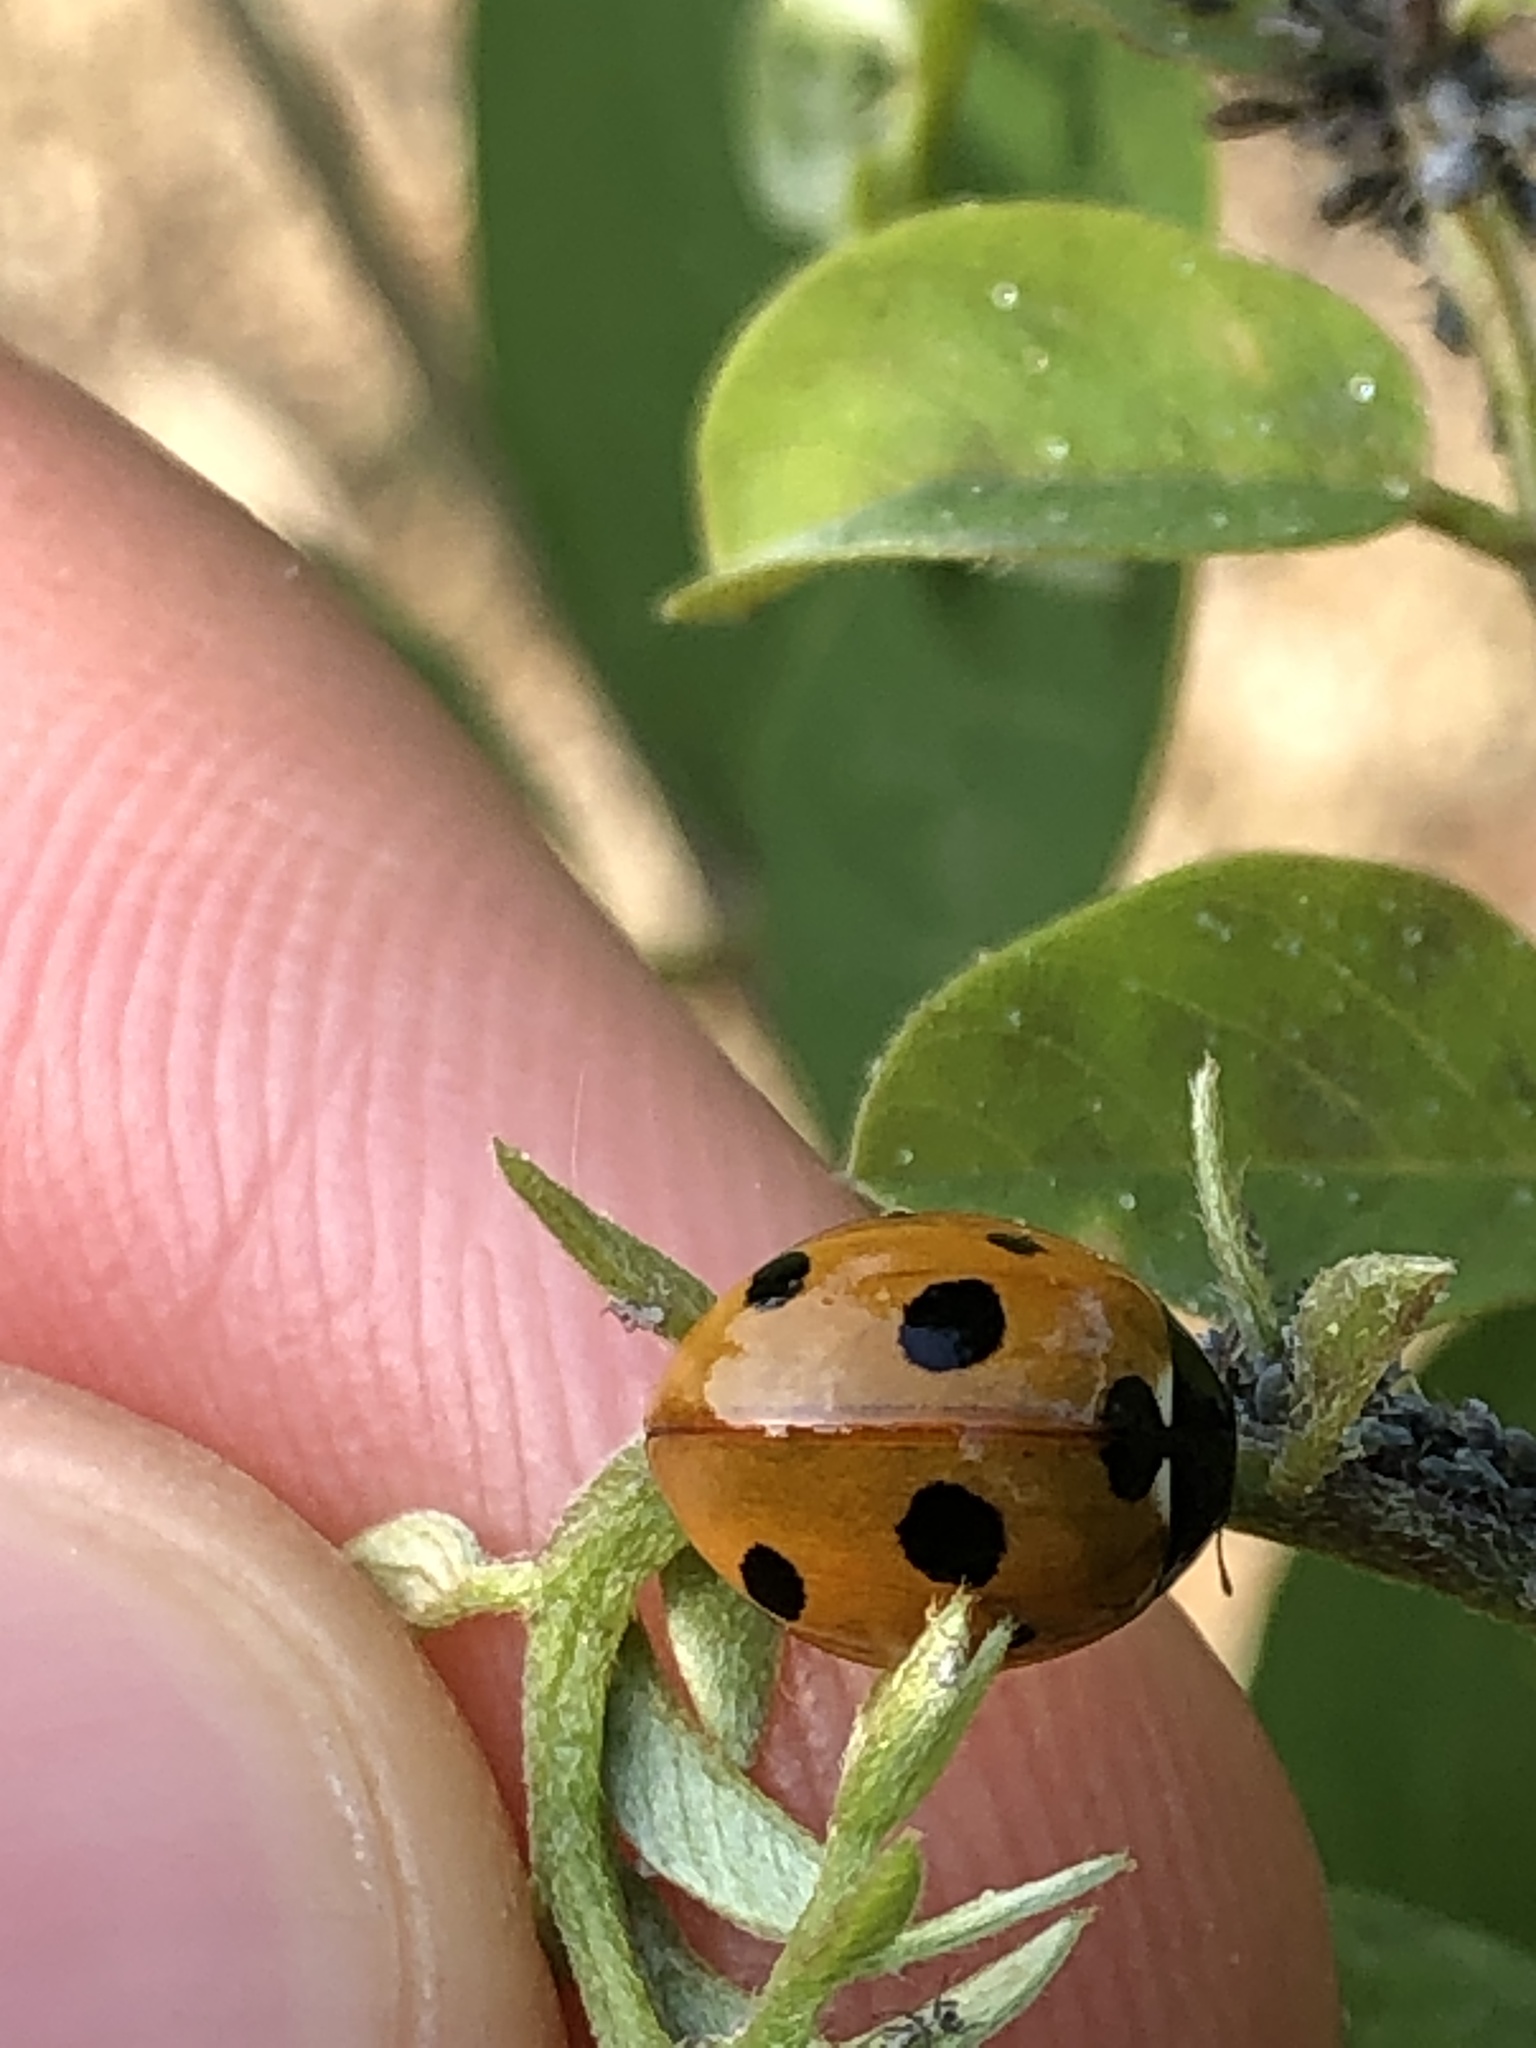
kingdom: Animalia
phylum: Arthropoda
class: Insecta
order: Coleoptera
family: Coccinellidae
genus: Coccinella
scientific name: Coccinella septempunctata
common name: Sevenspotted lady beetle
